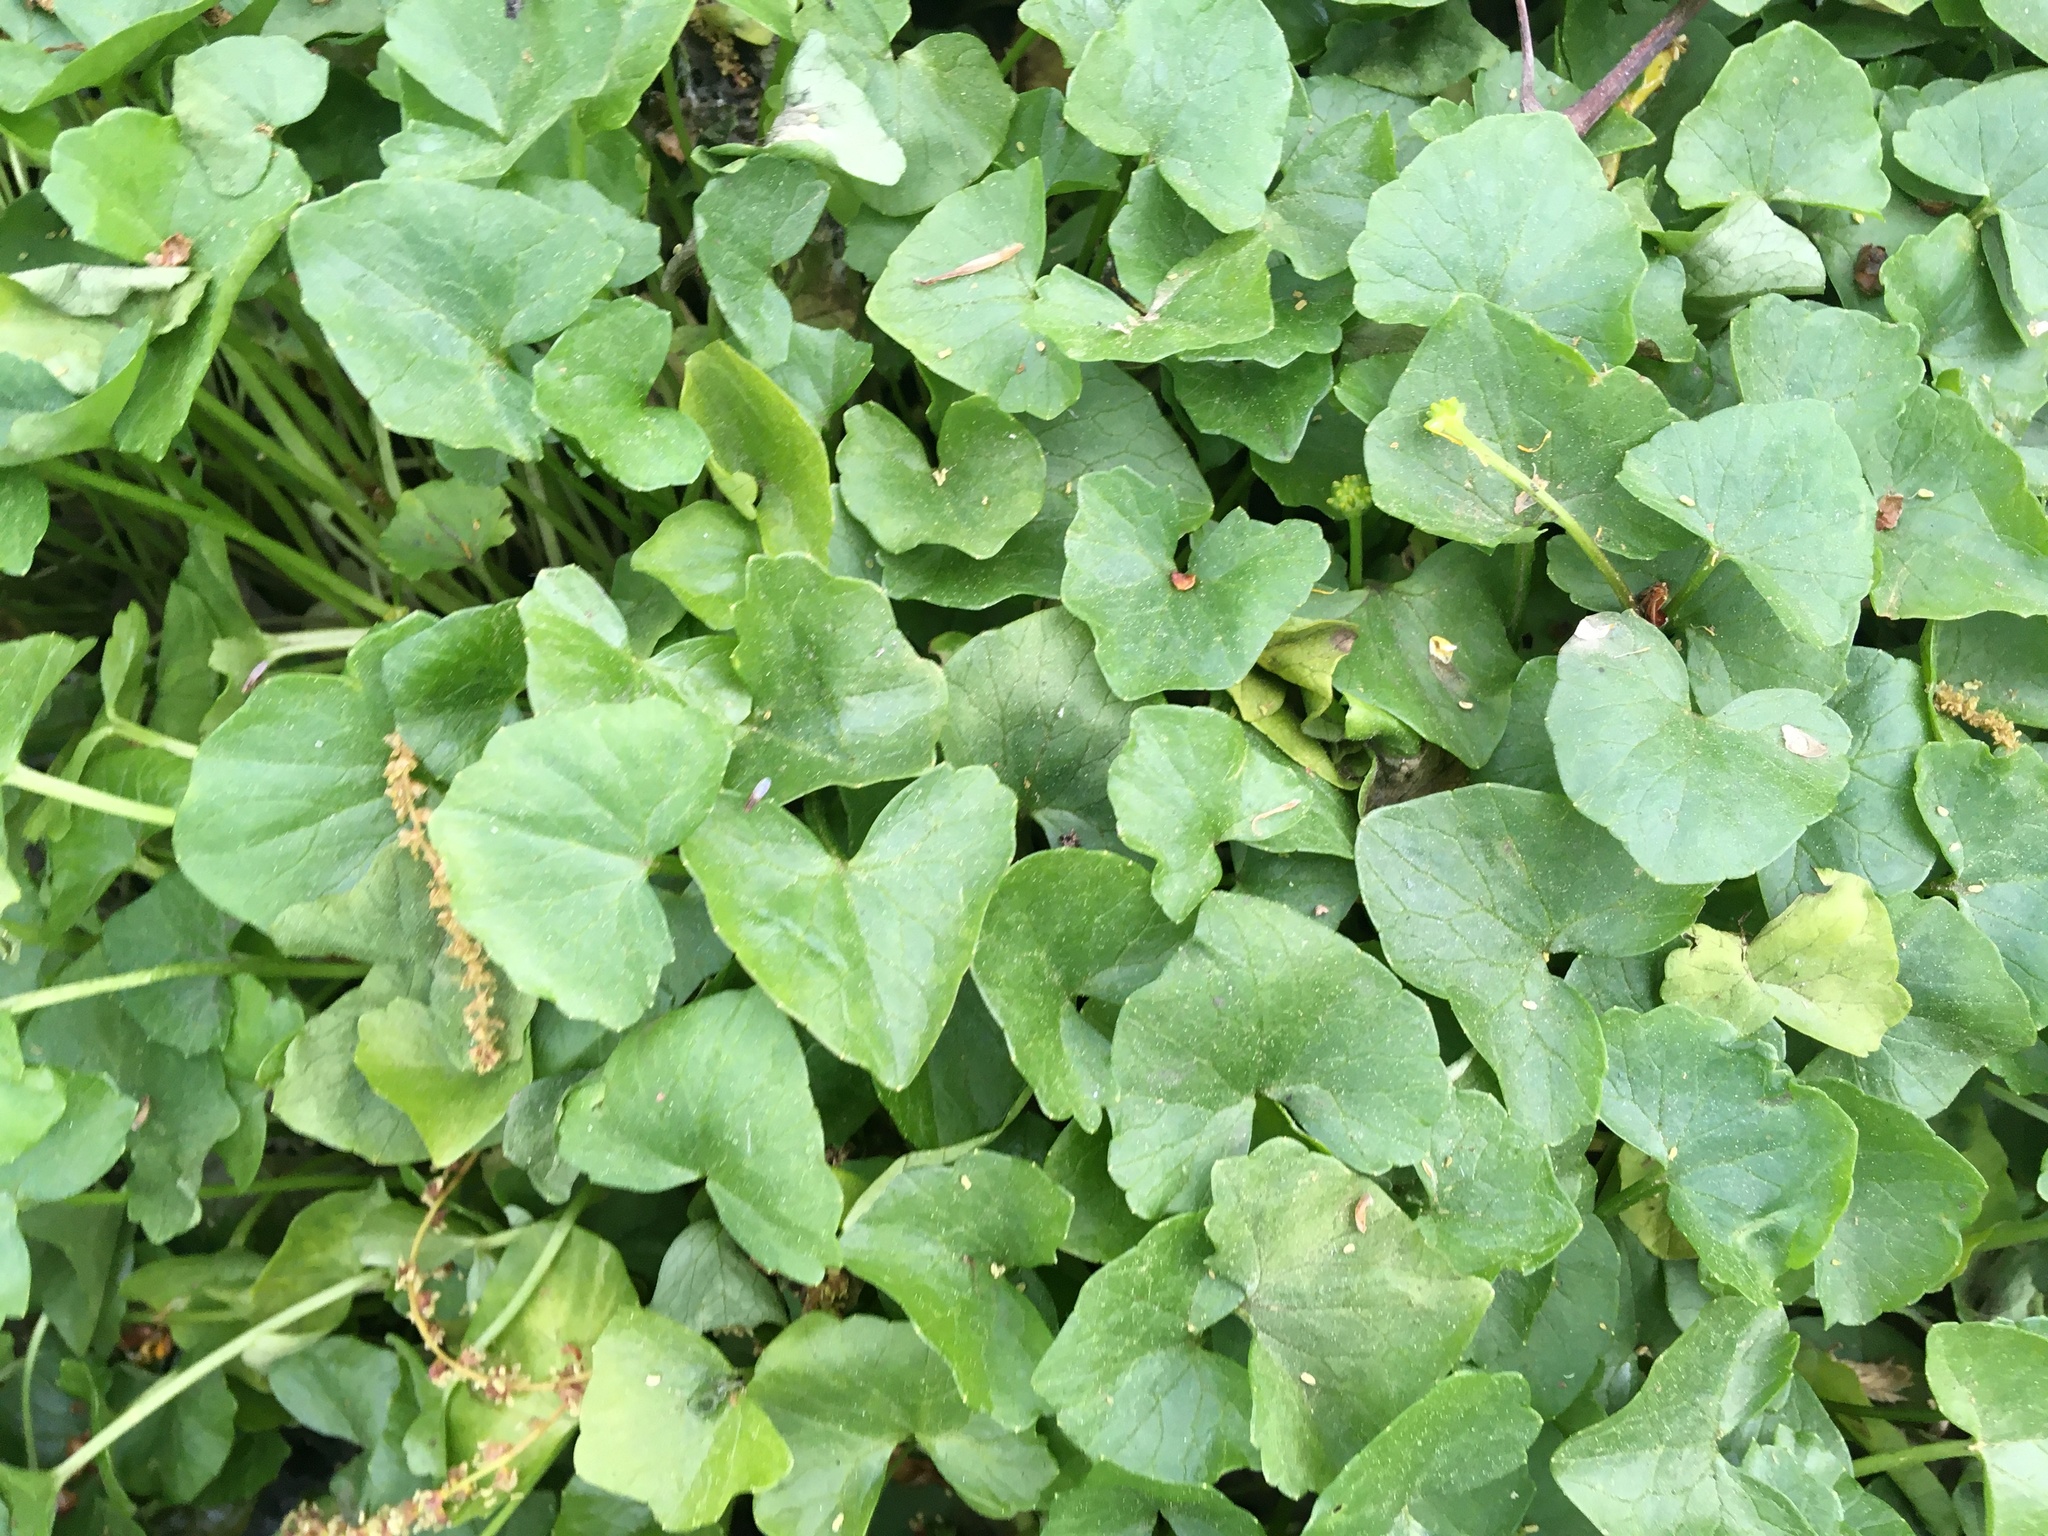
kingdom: Plantae
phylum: Tracheophyta
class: Magnoliopsida
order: Ranunculales
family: Ranunculaceae
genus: Ficaria
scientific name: Ficaria verna
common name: Lesser celandine
